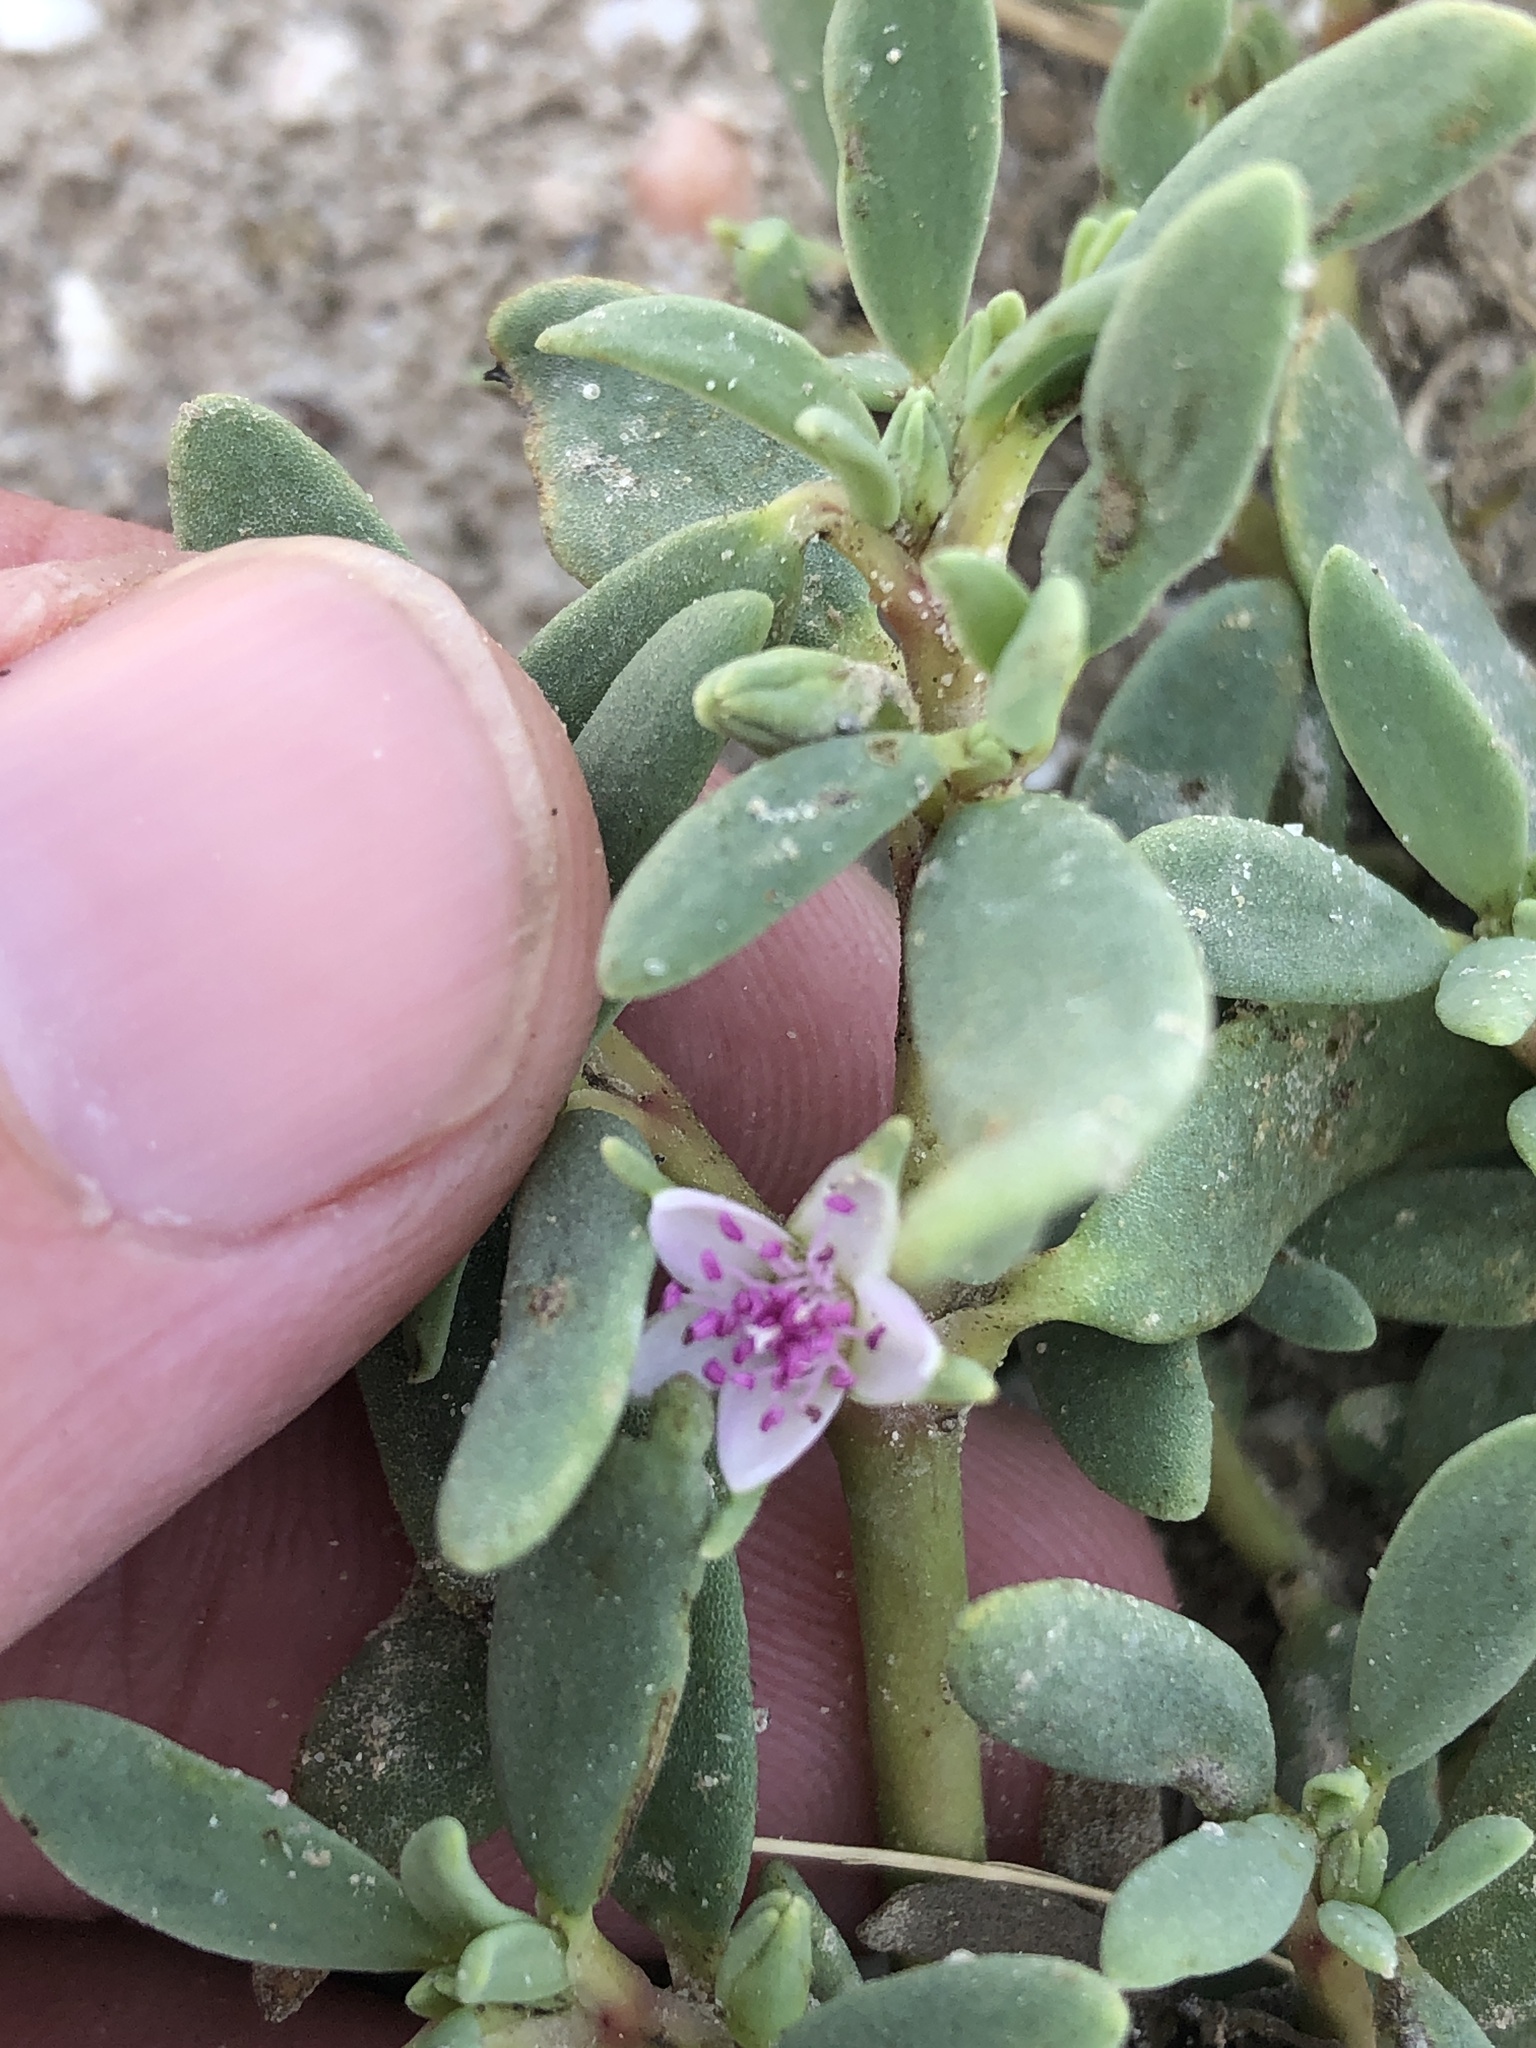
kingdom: Plantae
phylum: Tracheophyta
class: Magnoliopsida
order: Caryophyllales
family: Aizoaceae
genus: Sesuvium
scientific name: Sesuvium portulacastrum
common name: Sea-purslane
